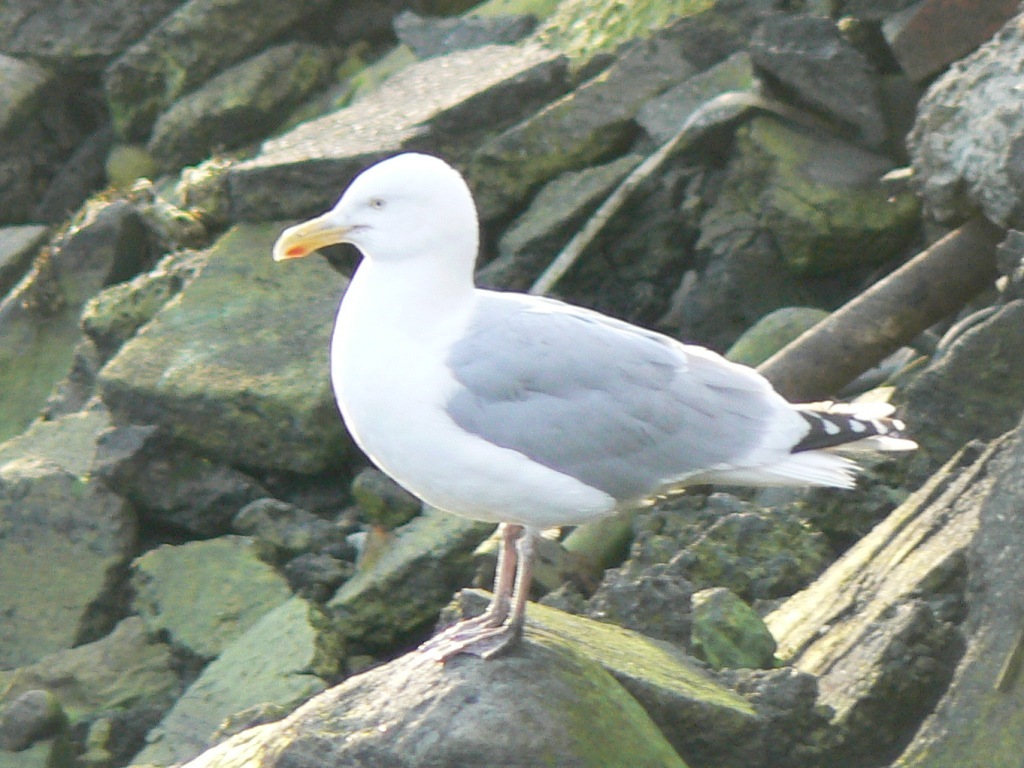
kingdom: Animalia
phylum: Chordata
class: Aves
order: Charadriiformes
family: Laridae
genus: Larus
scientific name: Larus argentatus
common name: Herring gull
